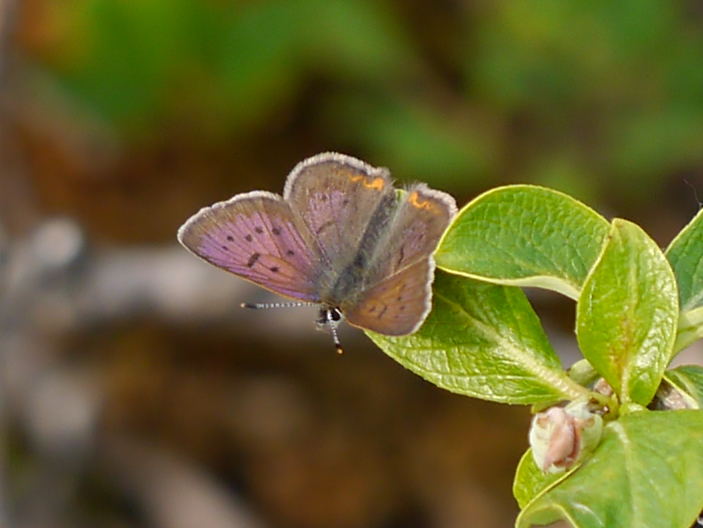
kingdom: Animalia
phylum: Arthropoda
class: Insecta
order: Lepidoptera
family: Lycaenidae
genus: Tharsalea
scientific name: Tharsalea dorcas
